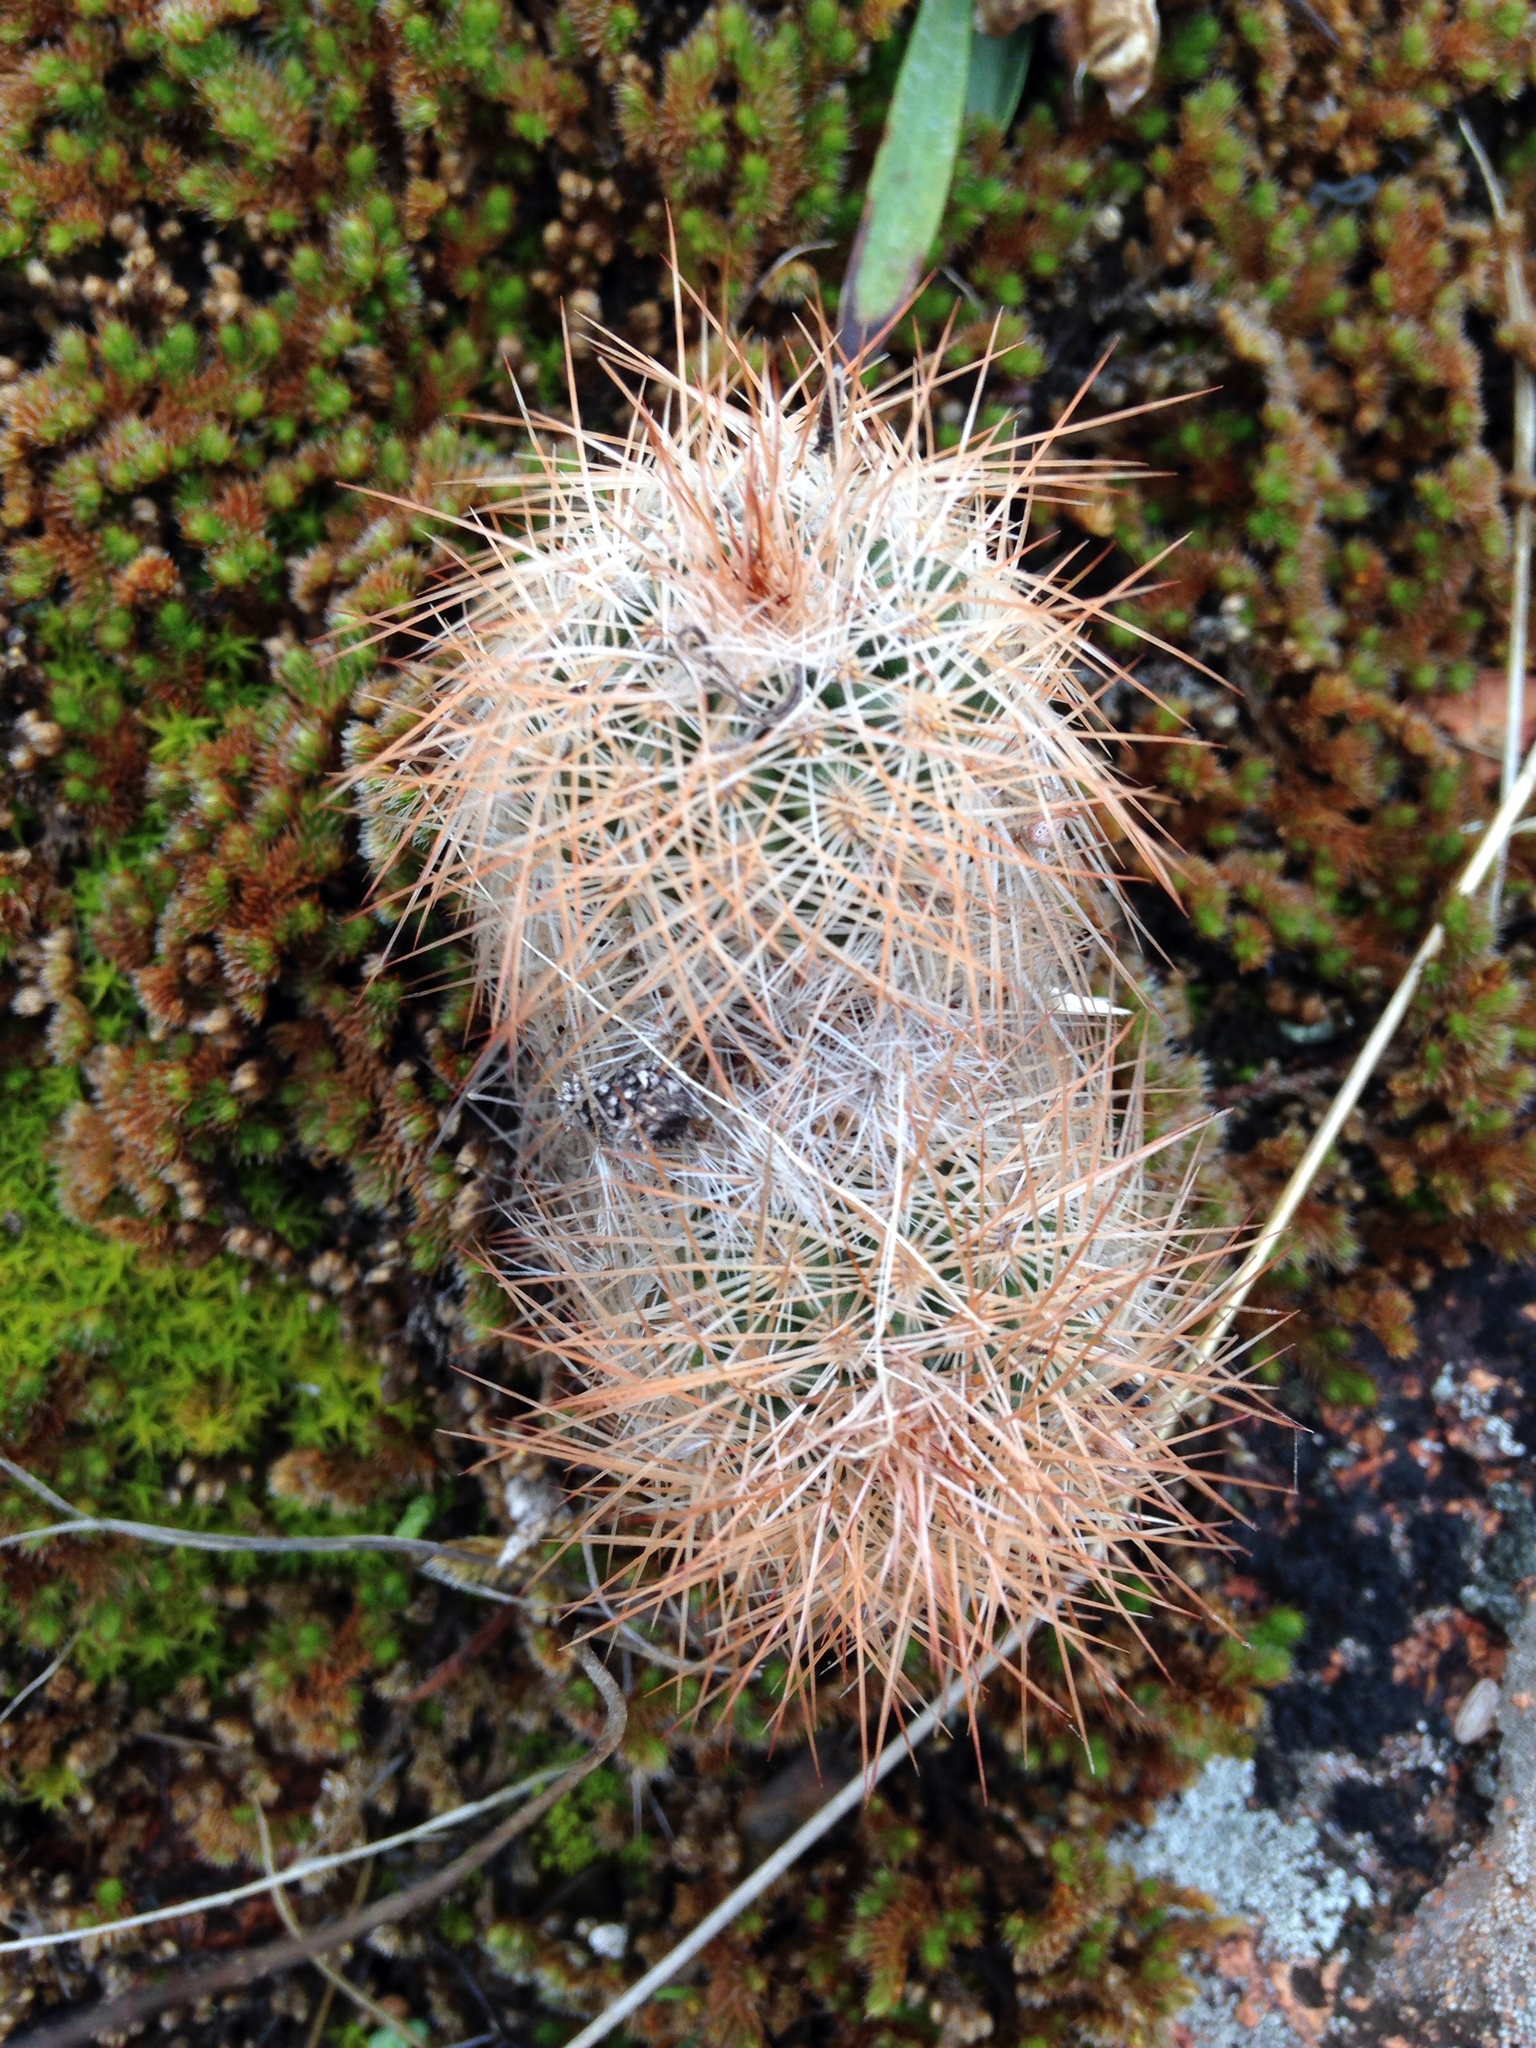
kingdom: Plantae
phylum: Tracheophyta
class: Magnoliopsida
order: Caryophyllales
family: Cactaceae
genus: Echinocereus
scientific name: Echinocereus reichenbachii
